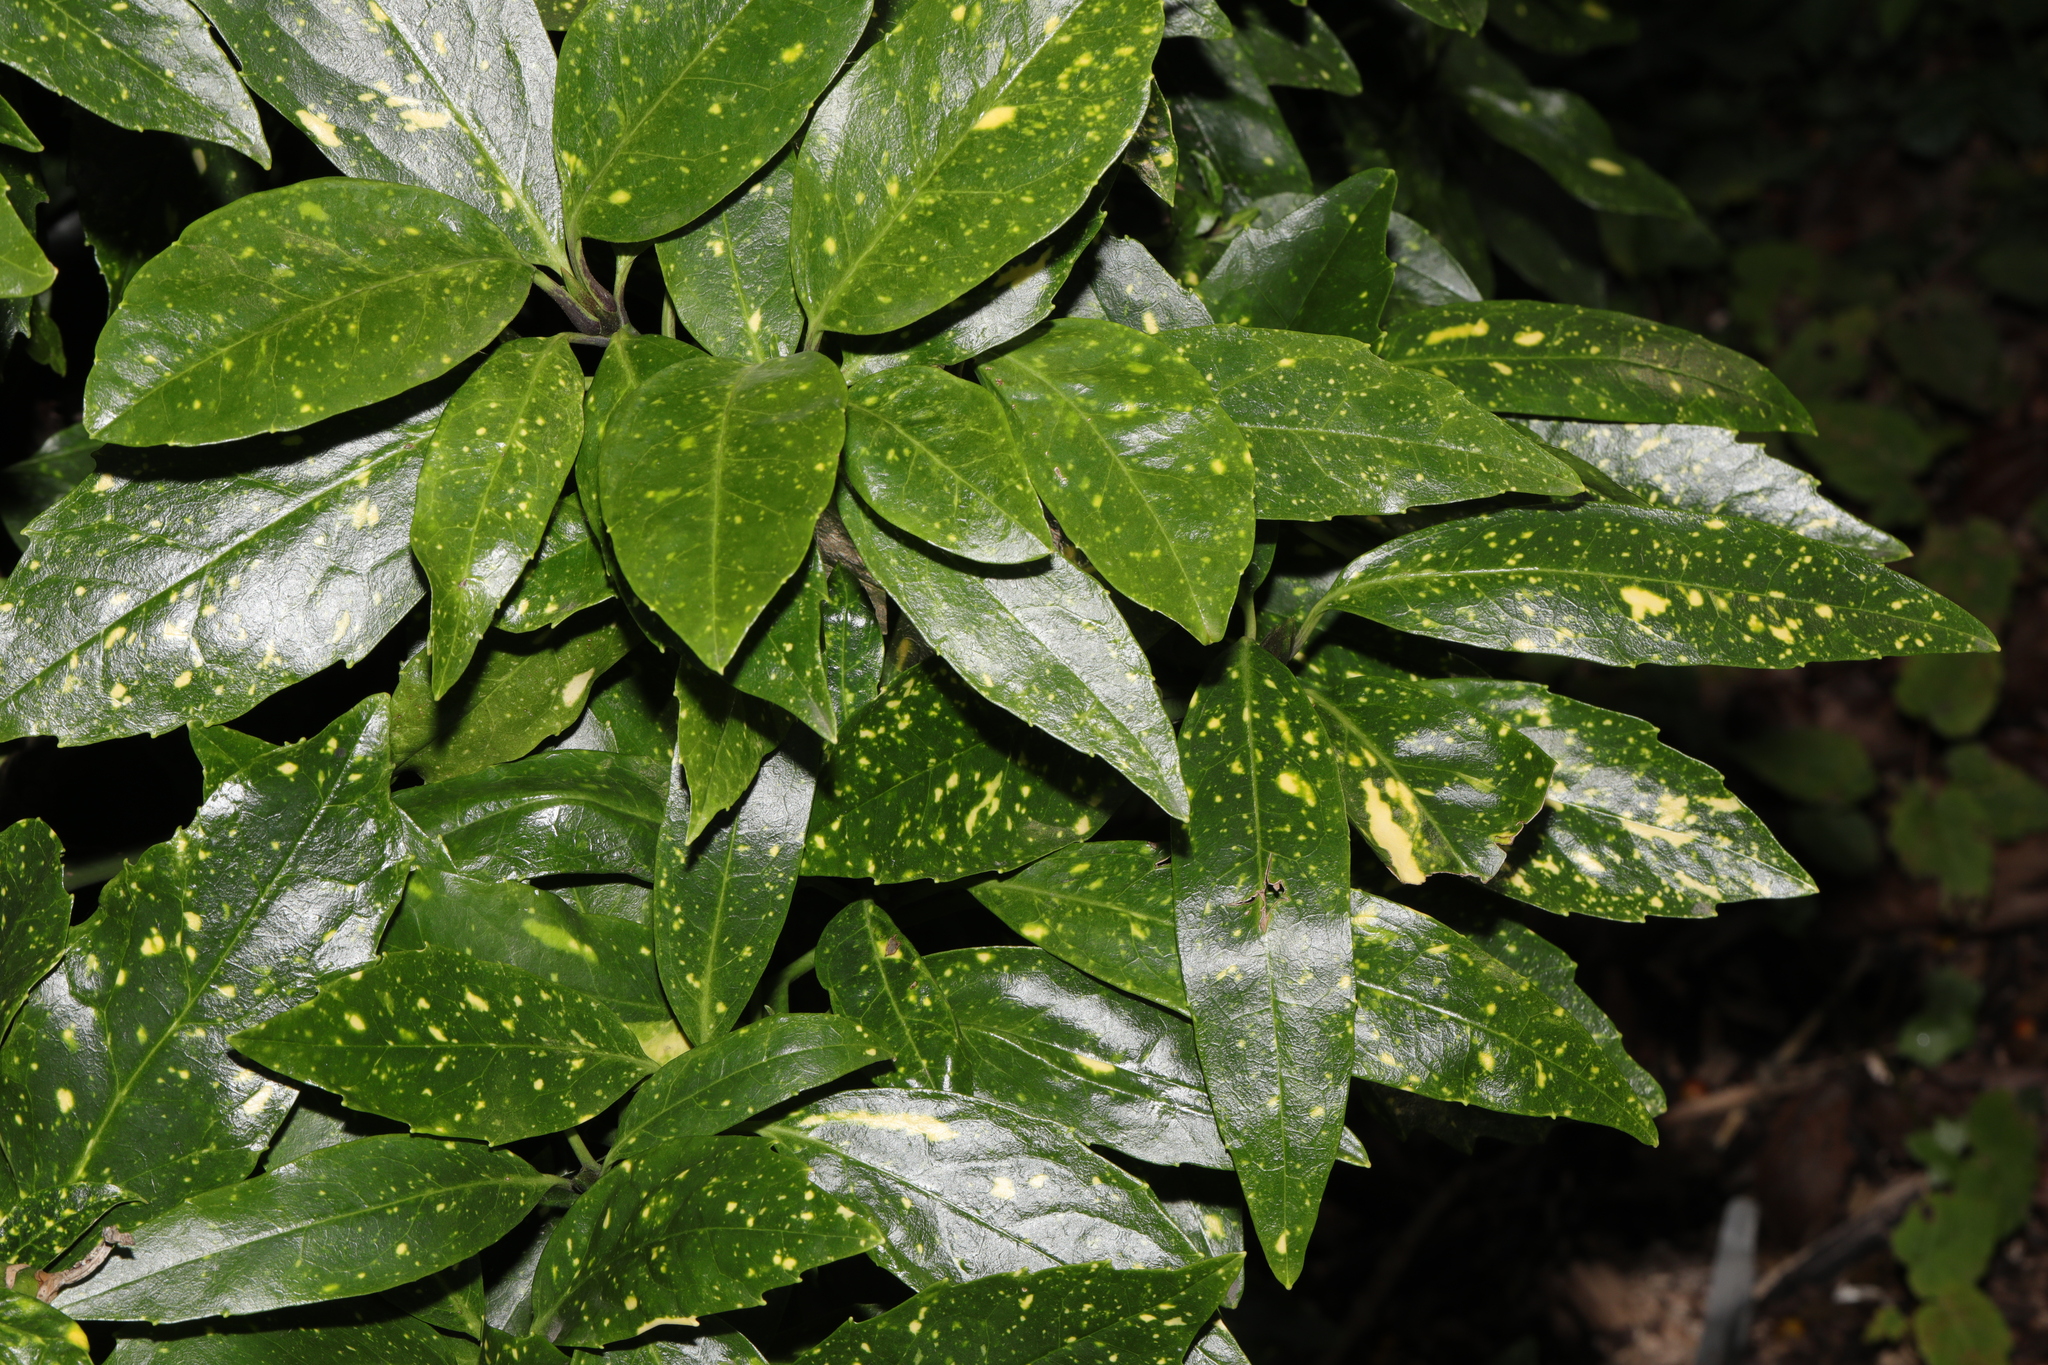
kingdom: Plantae
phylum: Tracheophyta
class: Magnoliopsida
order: Garryales
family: Garryaceae
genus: Aucuba
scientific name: Aucuba japonica
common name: Spotted-laurel
